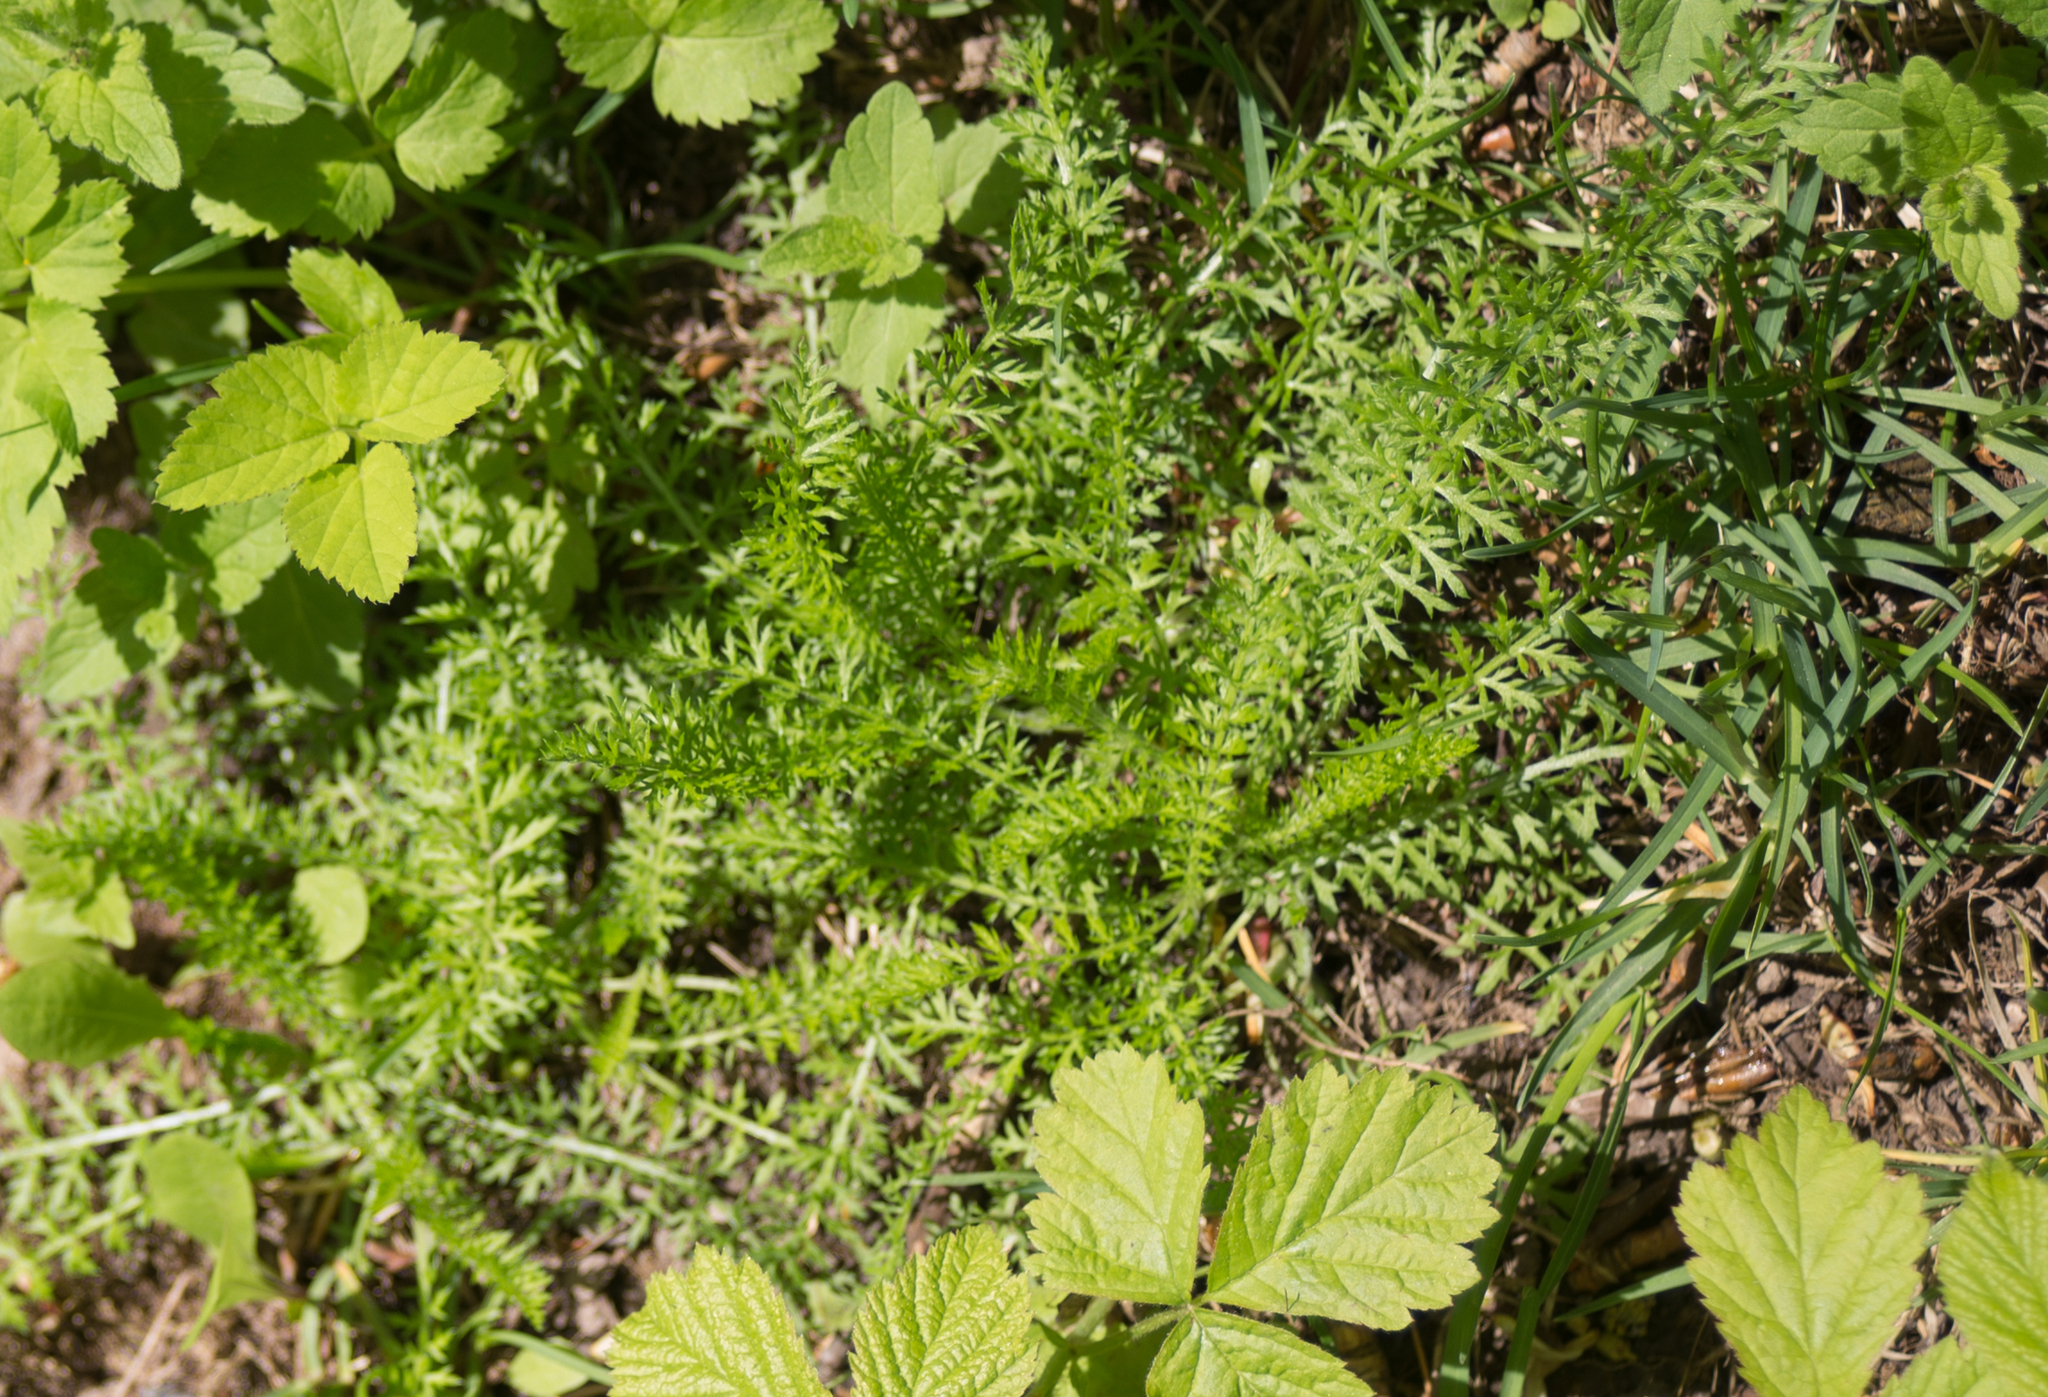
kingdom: Plantae
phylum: Tracheophyta
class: Magnoliopsida
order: Asterales
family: Asteraceae
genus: Achillea
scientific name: Achillea millefolium
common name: Yarrow
